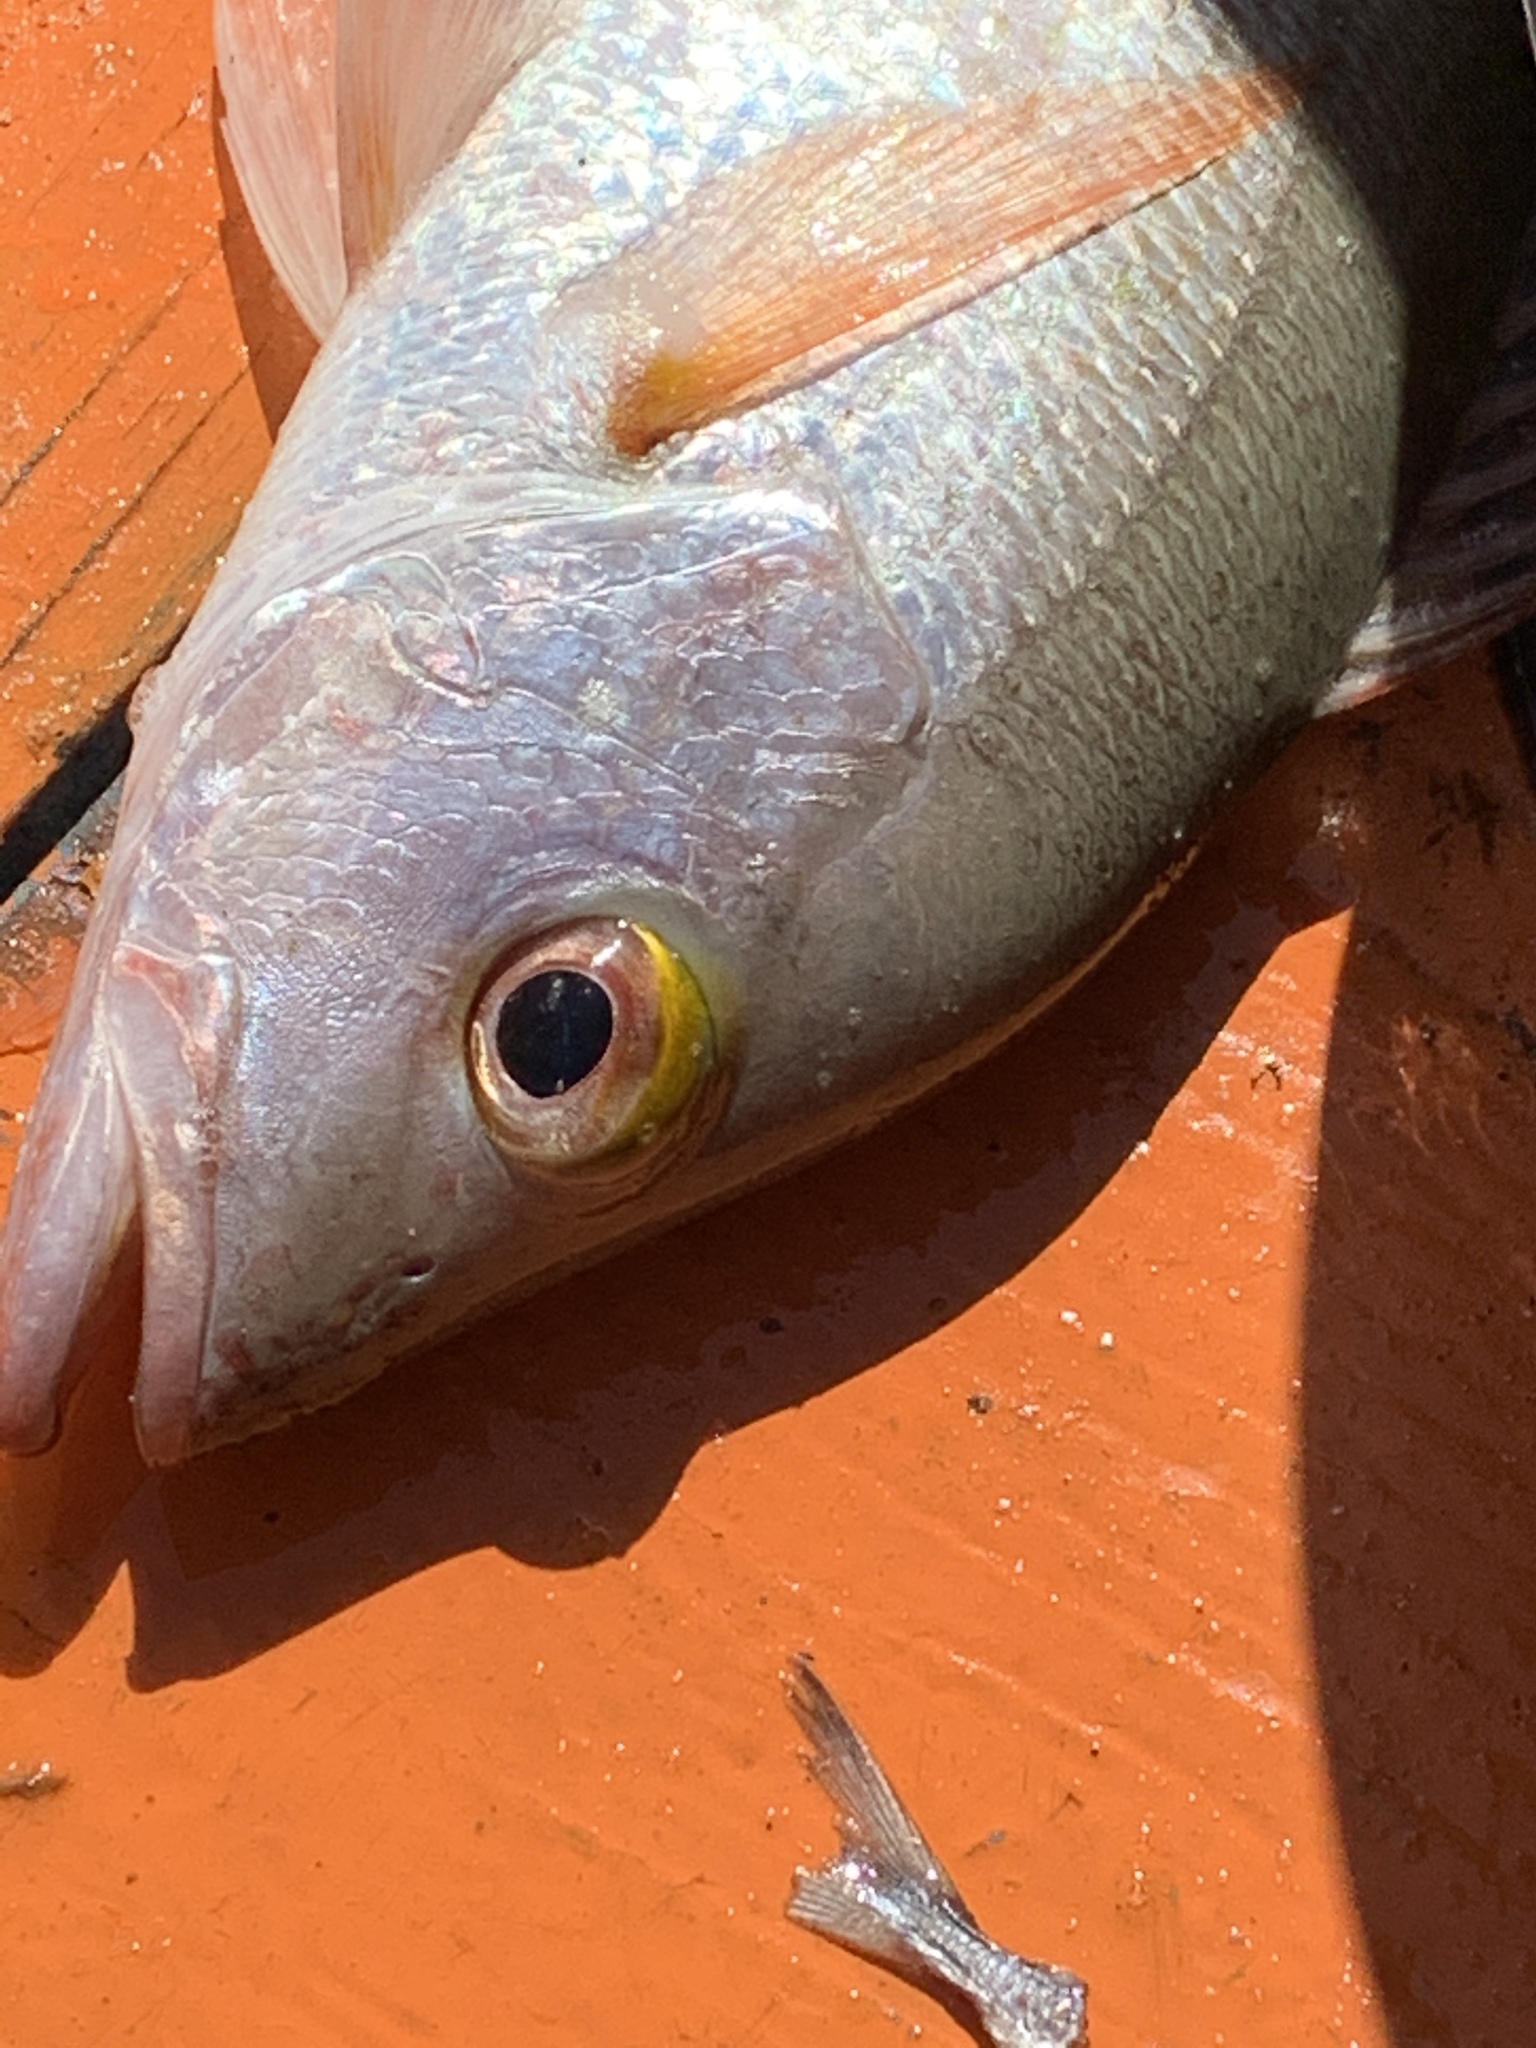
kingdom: Animalia
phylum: Chordata
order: Perciformes
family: Lutjanidae
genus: Lutjanus
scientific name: Lutjanus mahogoni
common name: Spot snapper
